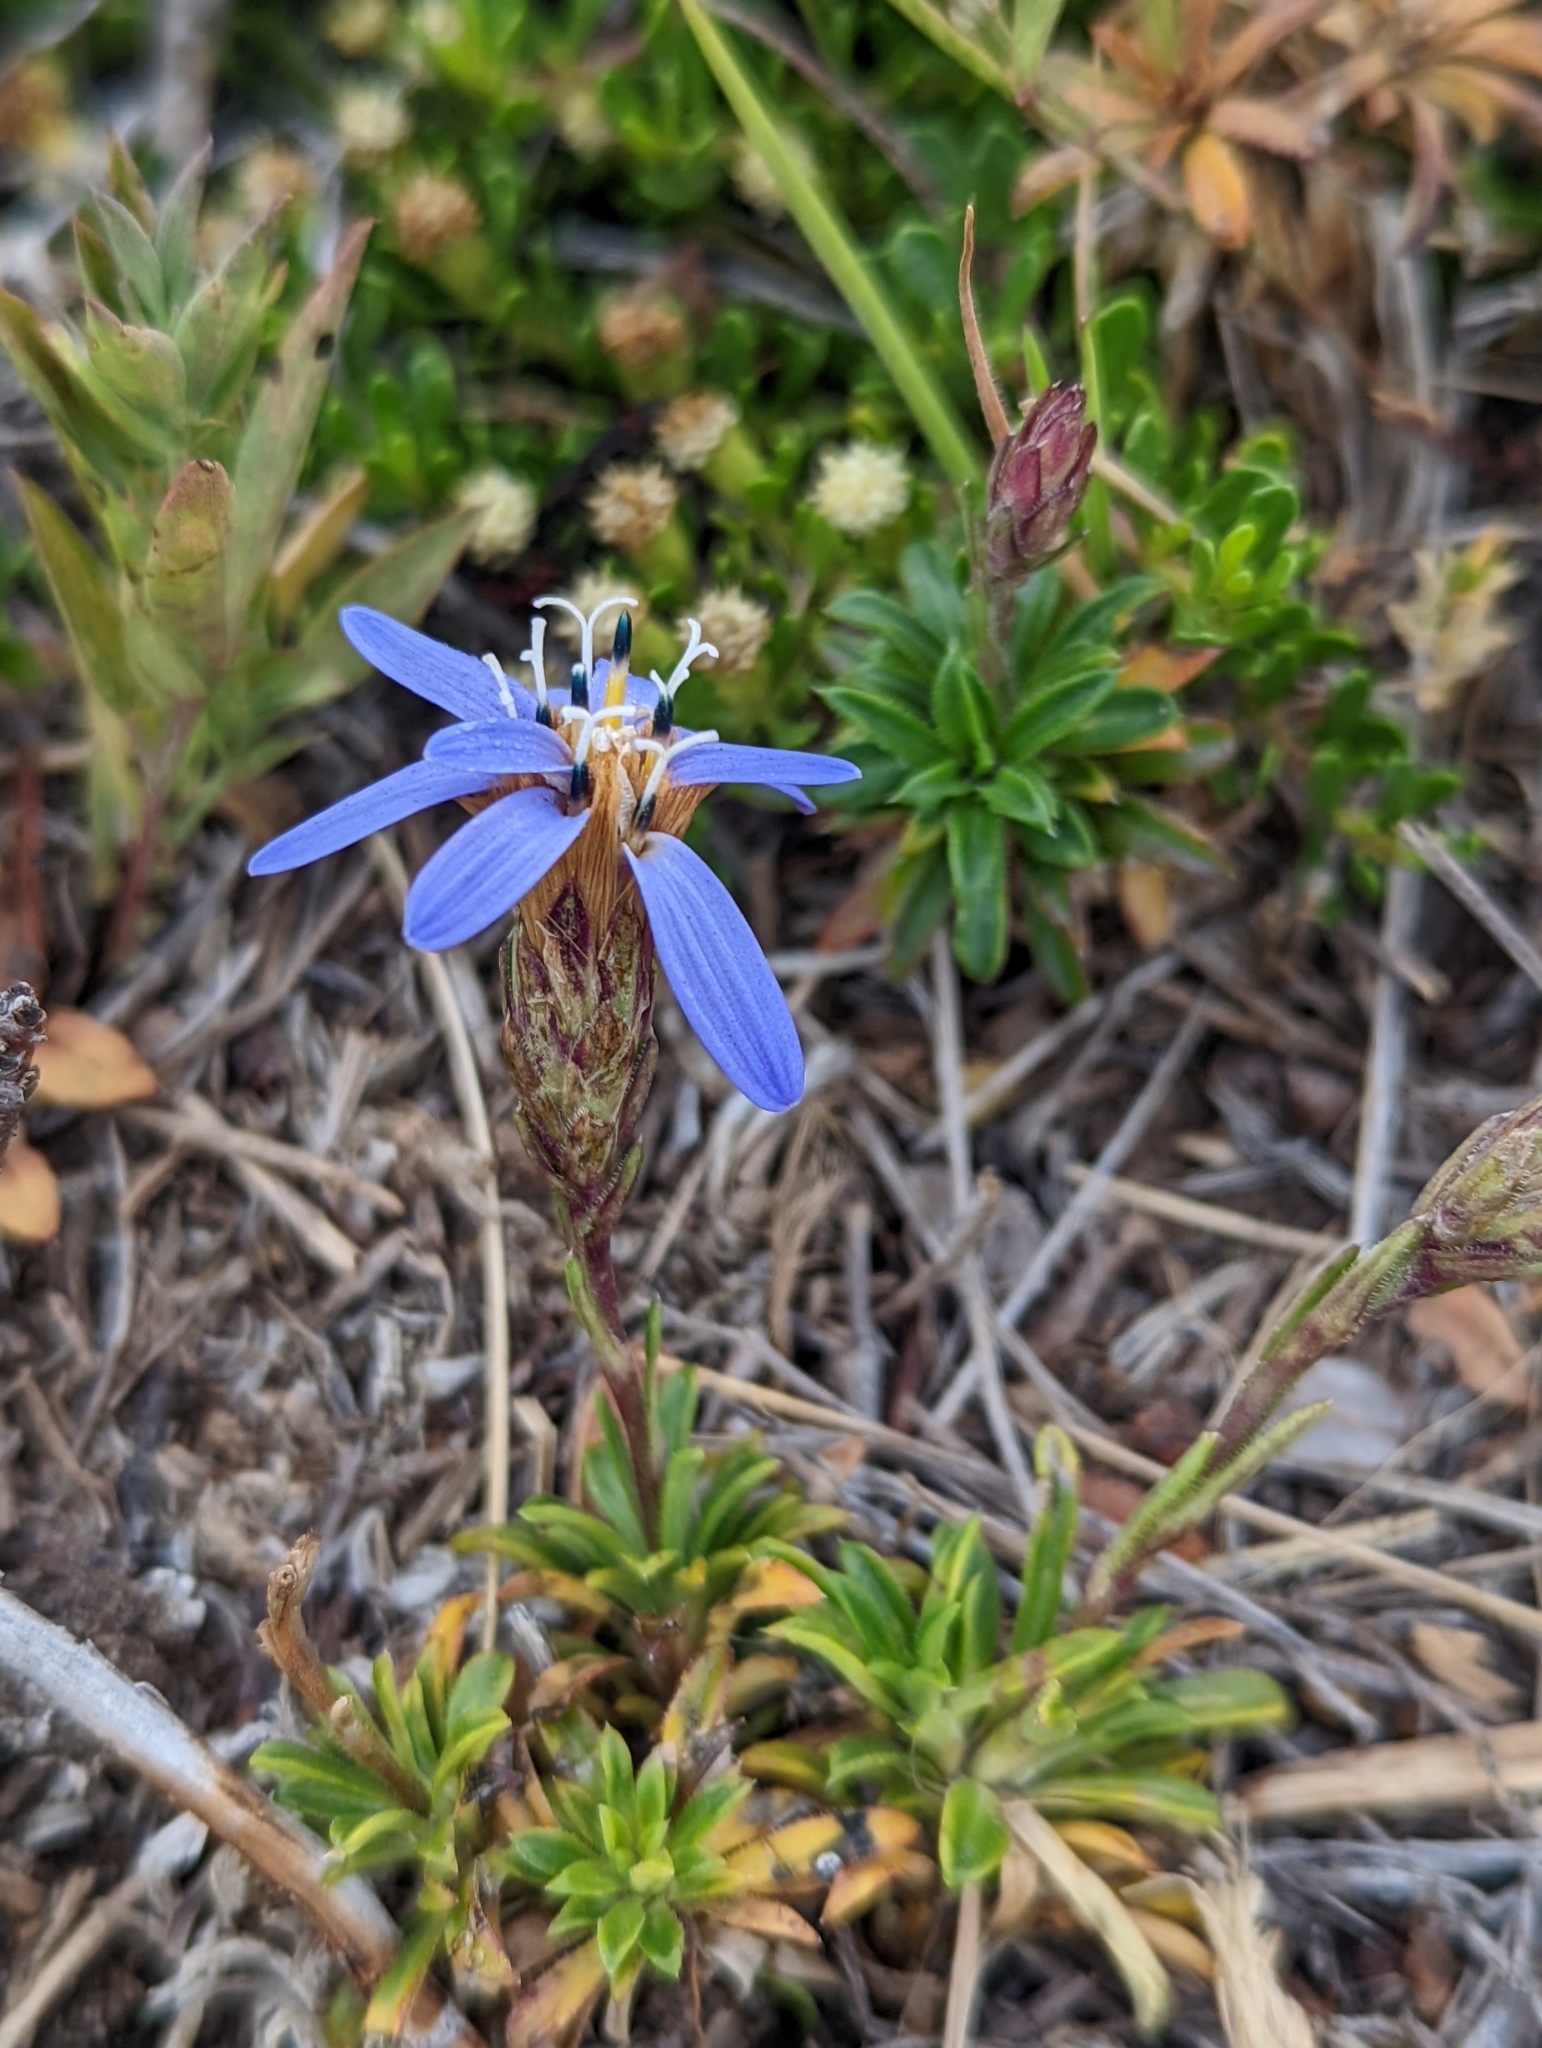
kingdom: Plantae
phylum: Tracheophyta
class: Magnoliopsida
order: Asterales
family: Asteraceae
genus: Perezia
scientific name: Perezia recurvata
